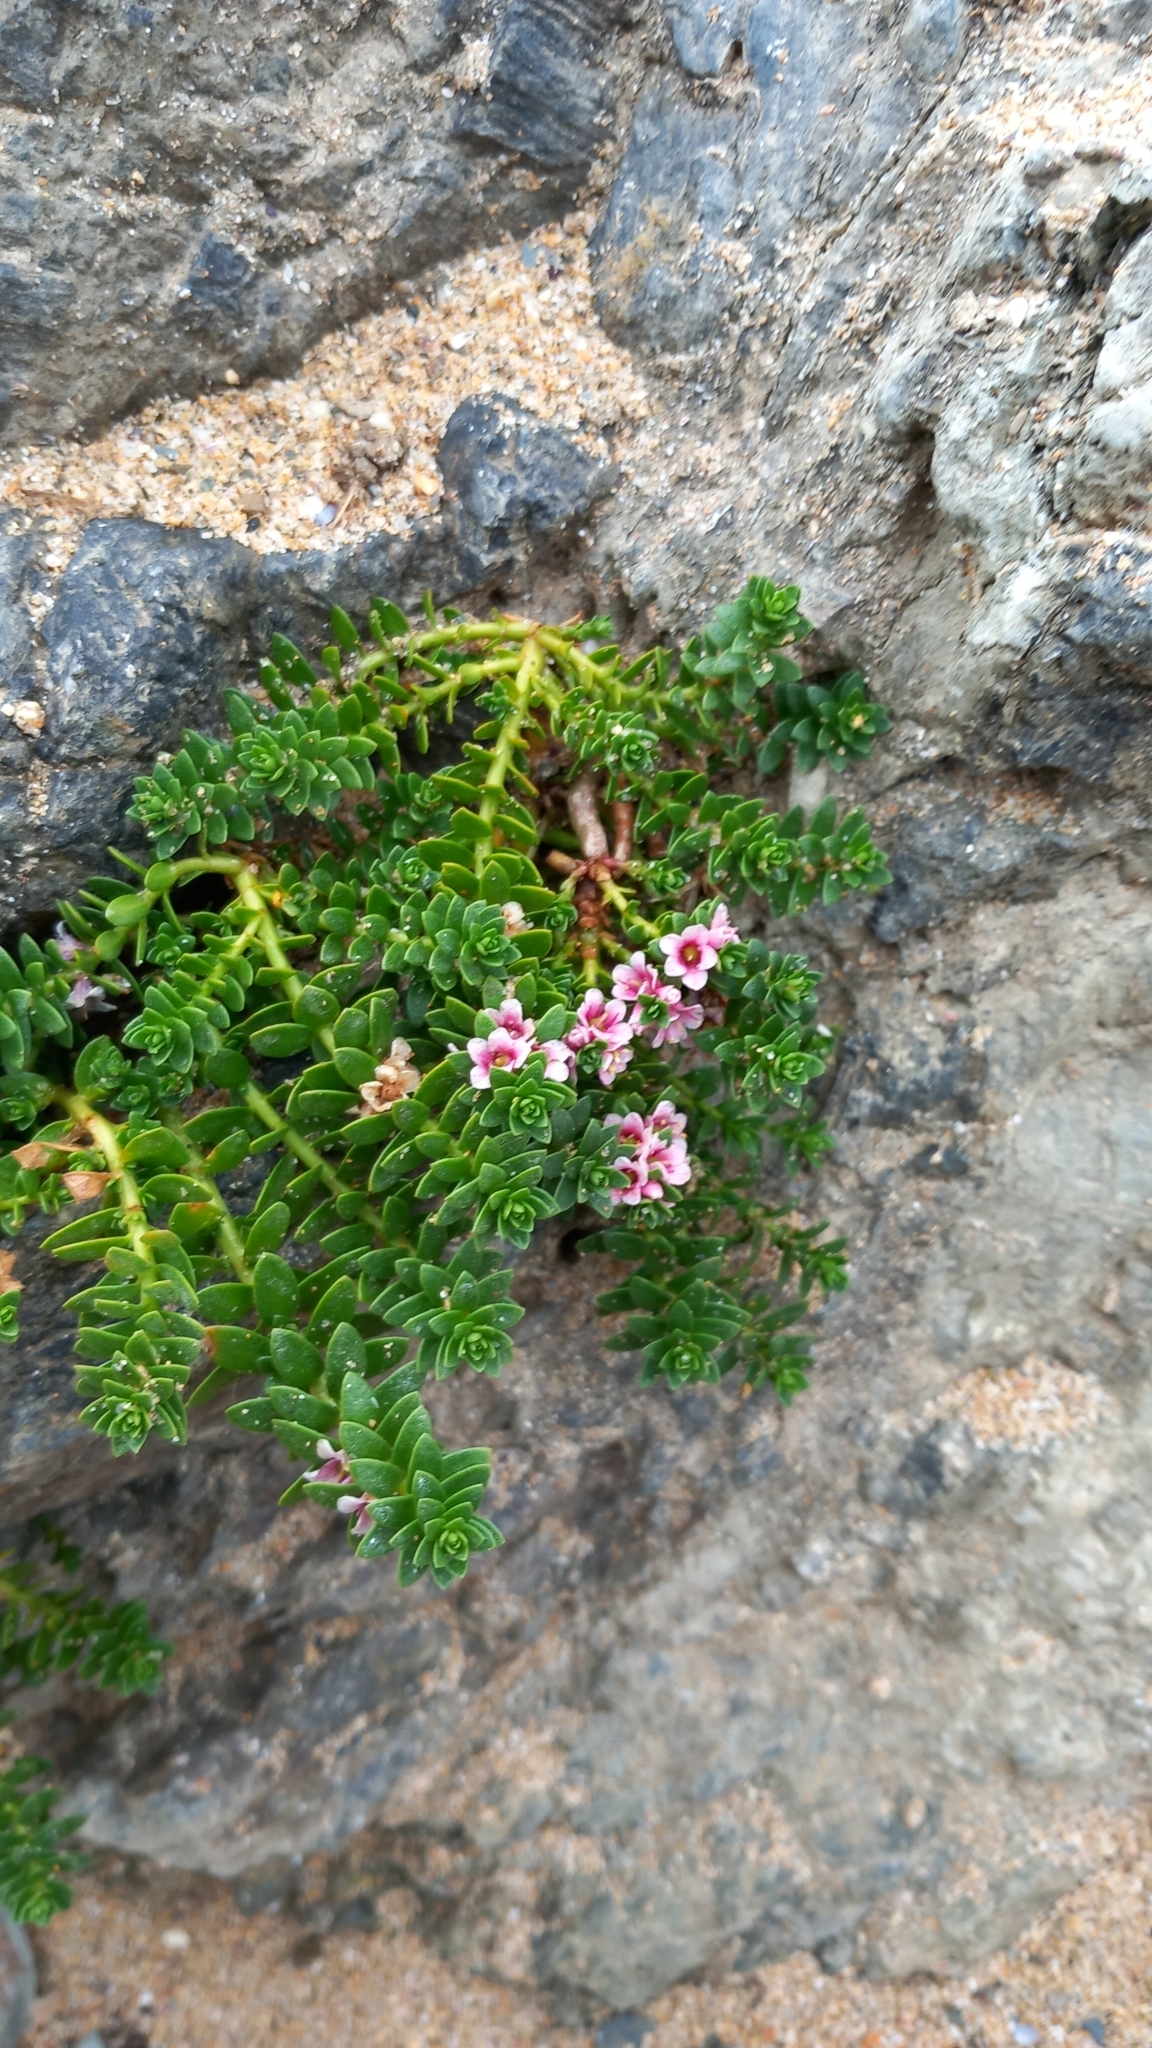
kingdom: Plantae
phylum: Tracheophyta
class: Magnoliopsida
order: Ericales
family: Primulaceae
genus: Lysimachia
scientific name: Lysimachia maritima
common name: Sea milkwort
